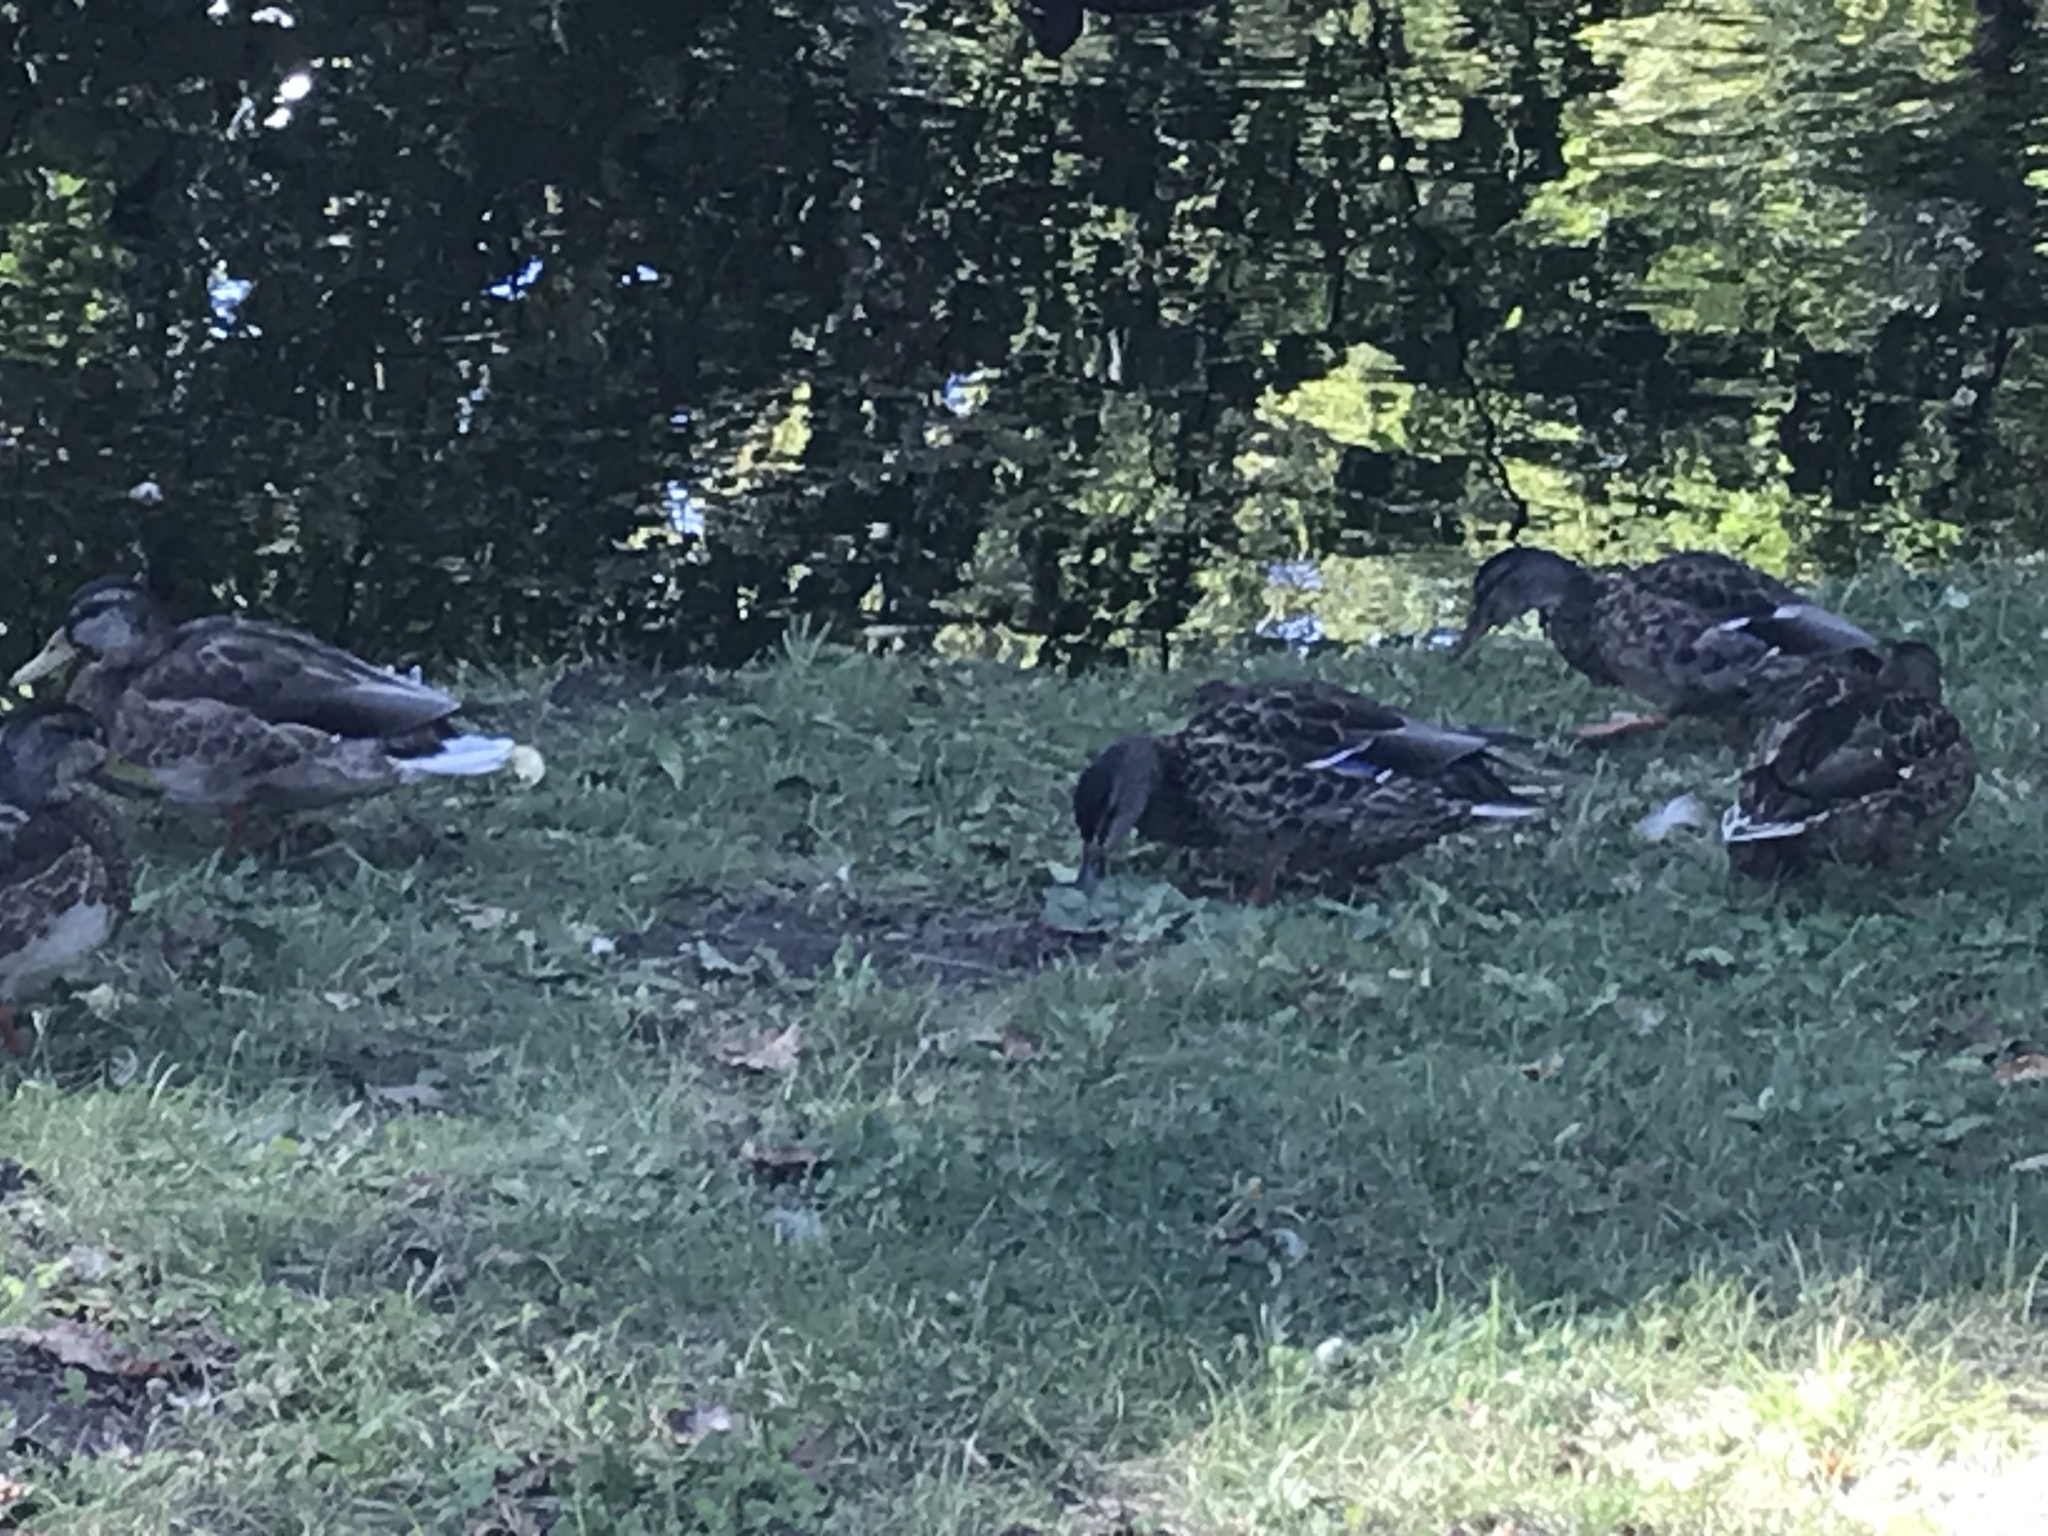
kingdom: Animalia
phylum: Chordata
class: Aves
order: Anseriformes
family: Anatidae
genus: Anas
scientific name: Anas platyrhynchos
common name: Mallard
